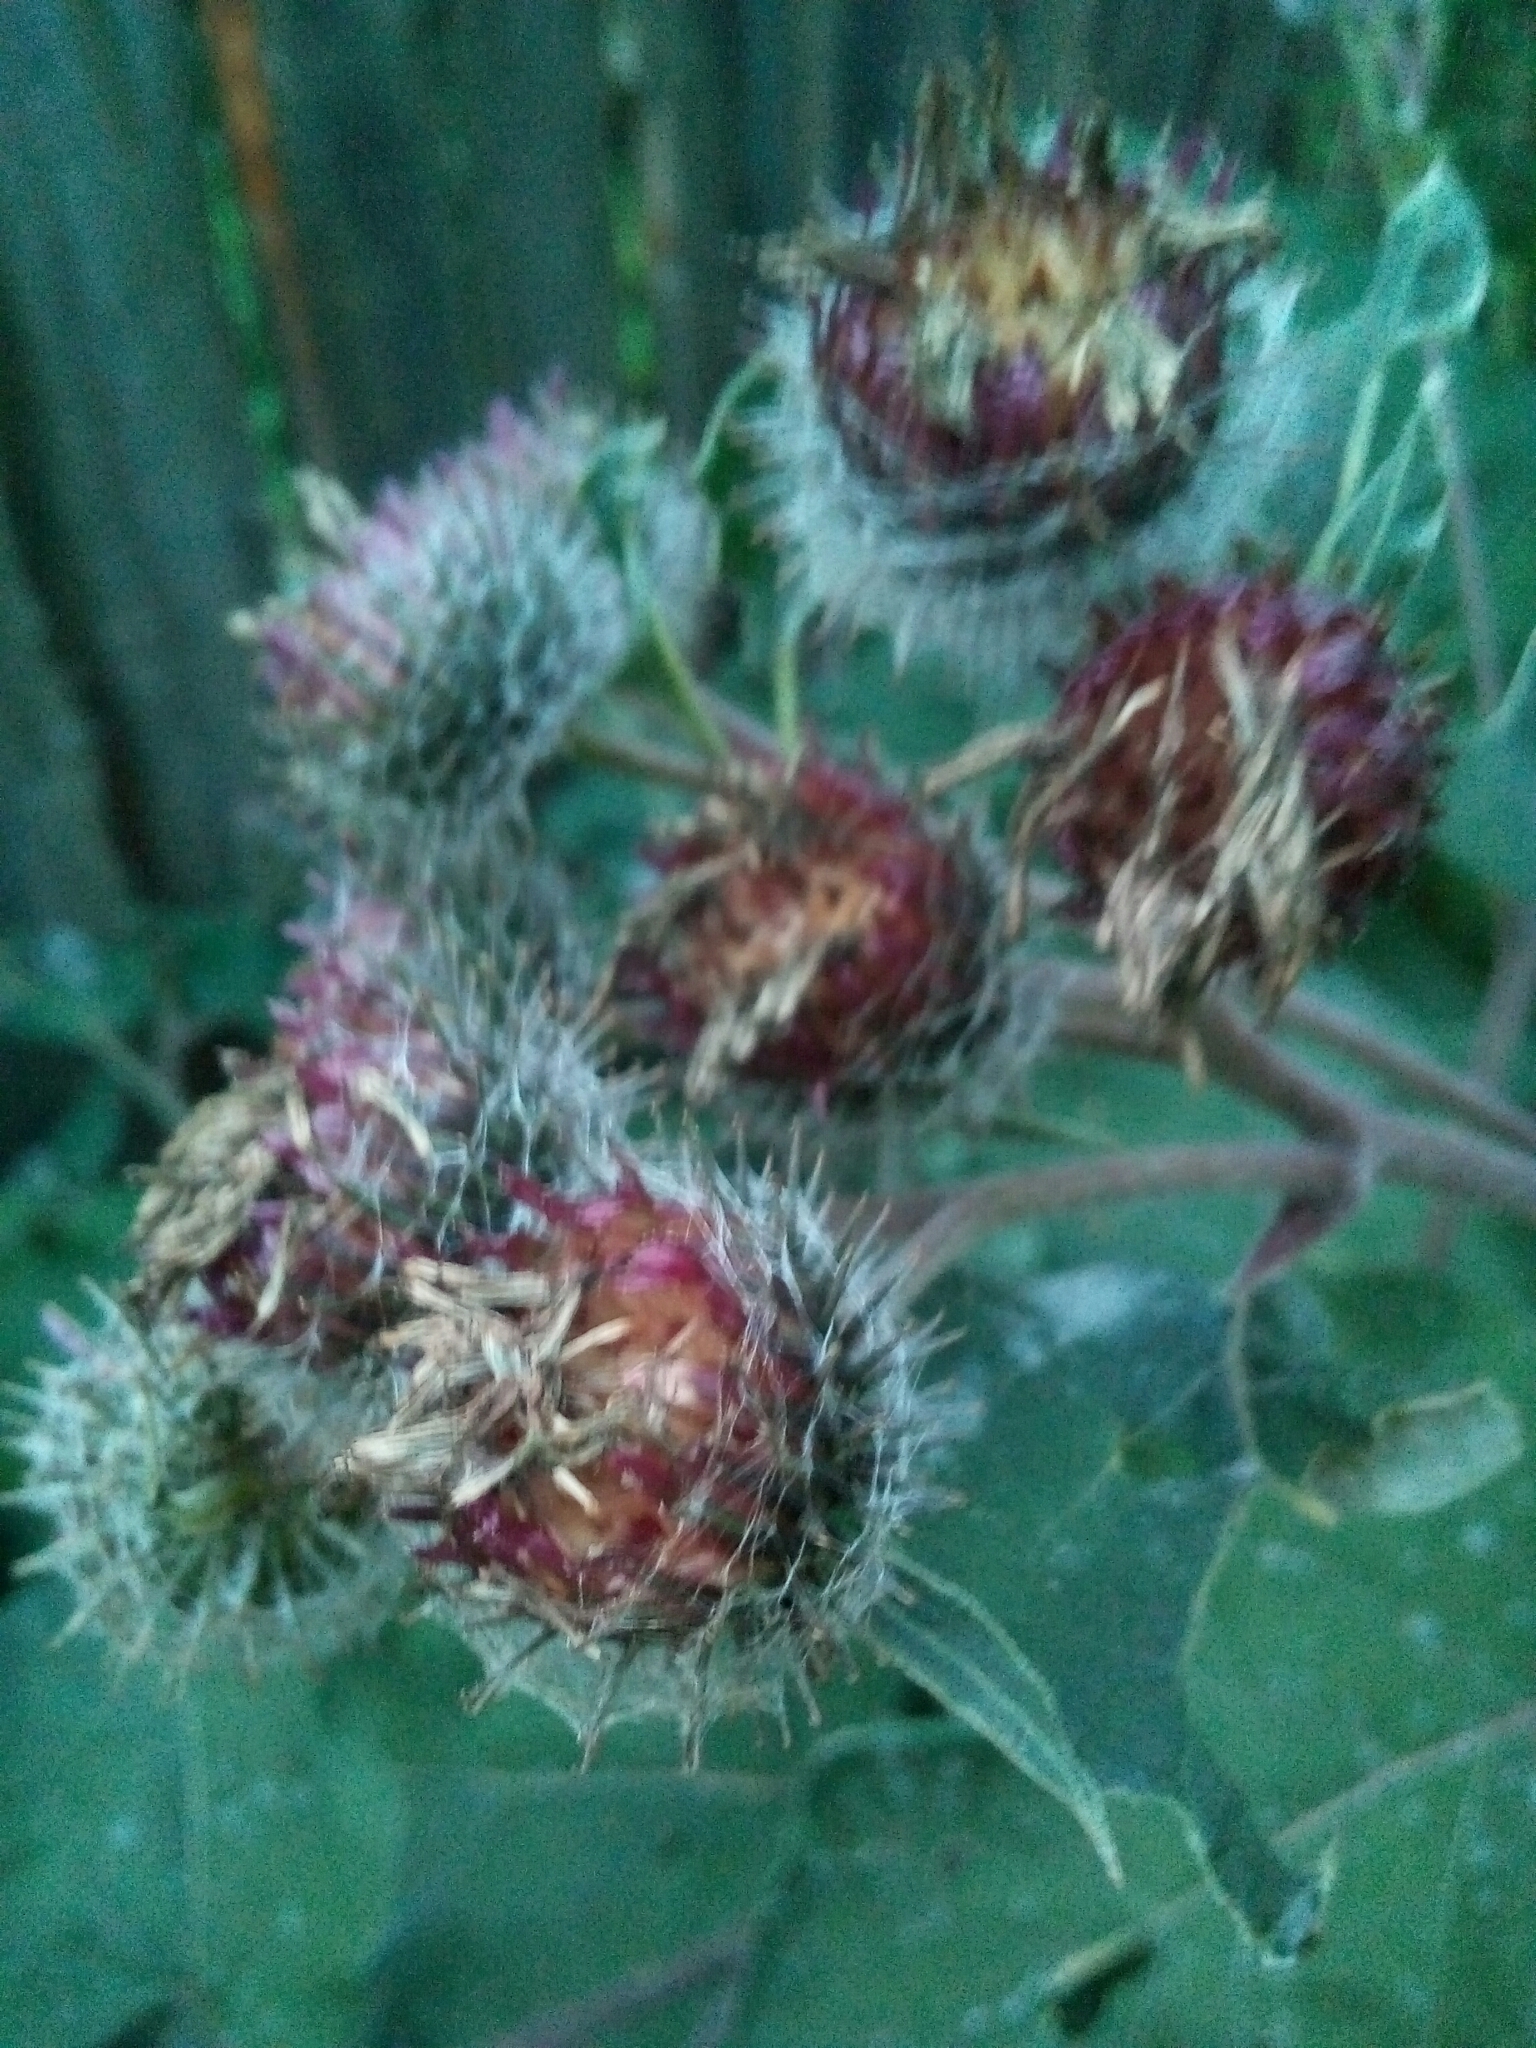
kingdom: Plantae
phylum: Tracheophyta
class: Magnoliopsida
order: Asterales
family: Asteraceae
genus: Arctium
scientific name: Arctium tomentosum
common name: Woolly burdock
